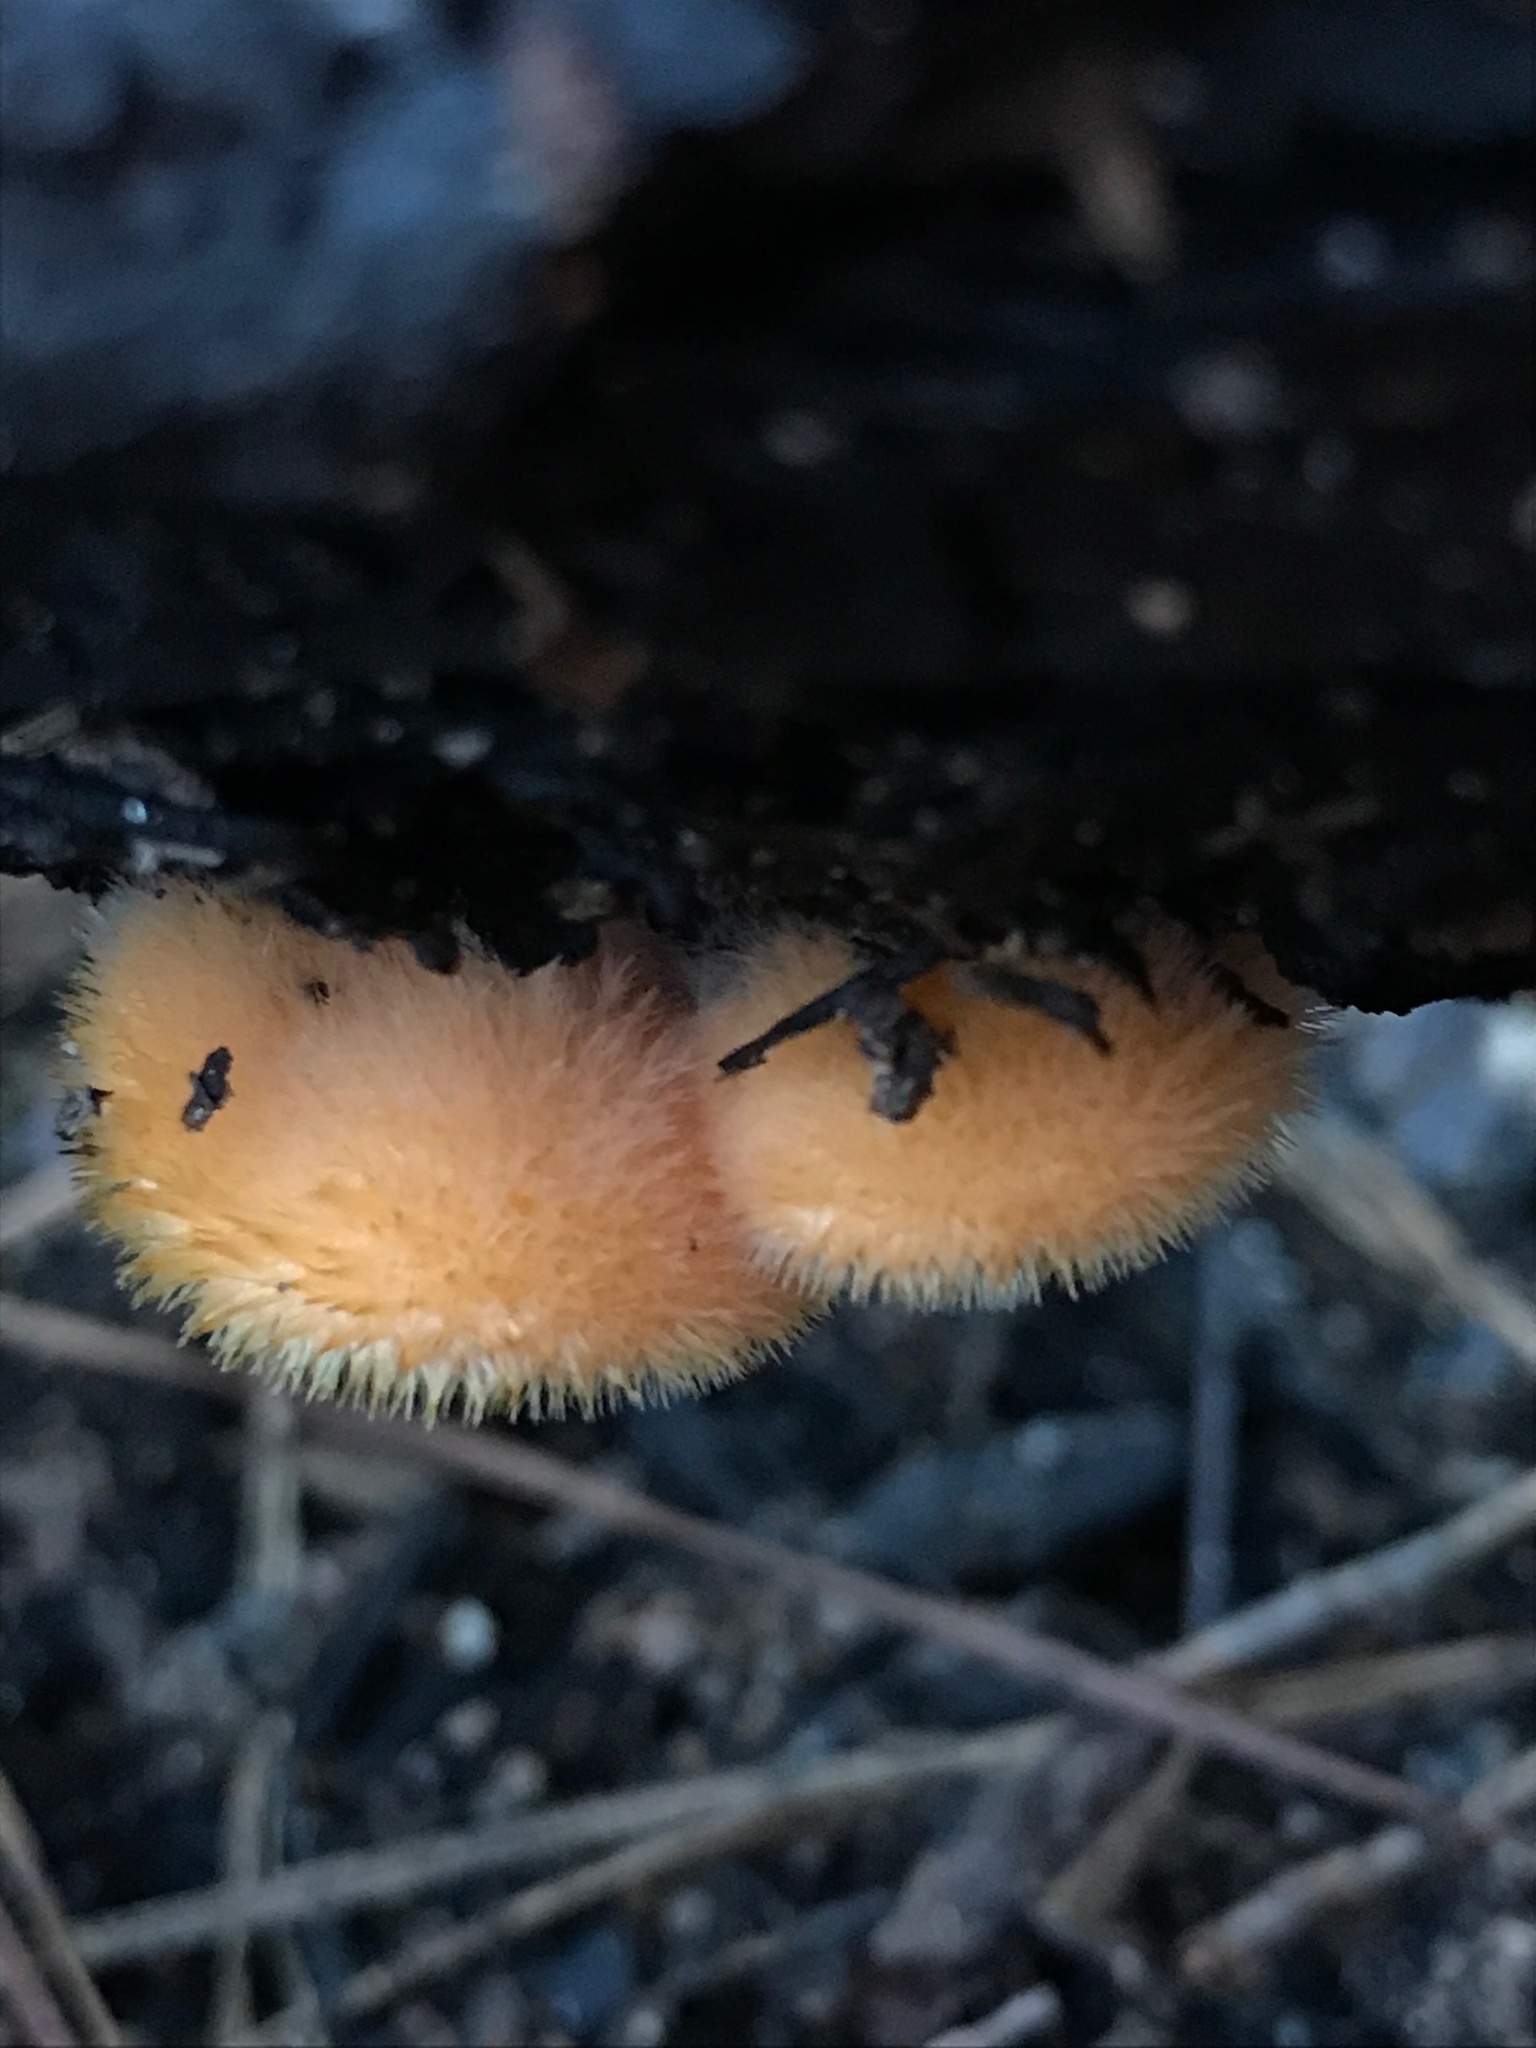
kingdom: Fungi
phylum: Basidiomycota
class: Agaricomycetes
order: Agaricales
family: Phyllotopsidaceae
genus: Phyllotopsis
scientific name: Phyllotopsis nidulans
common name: Orange mock oyster
